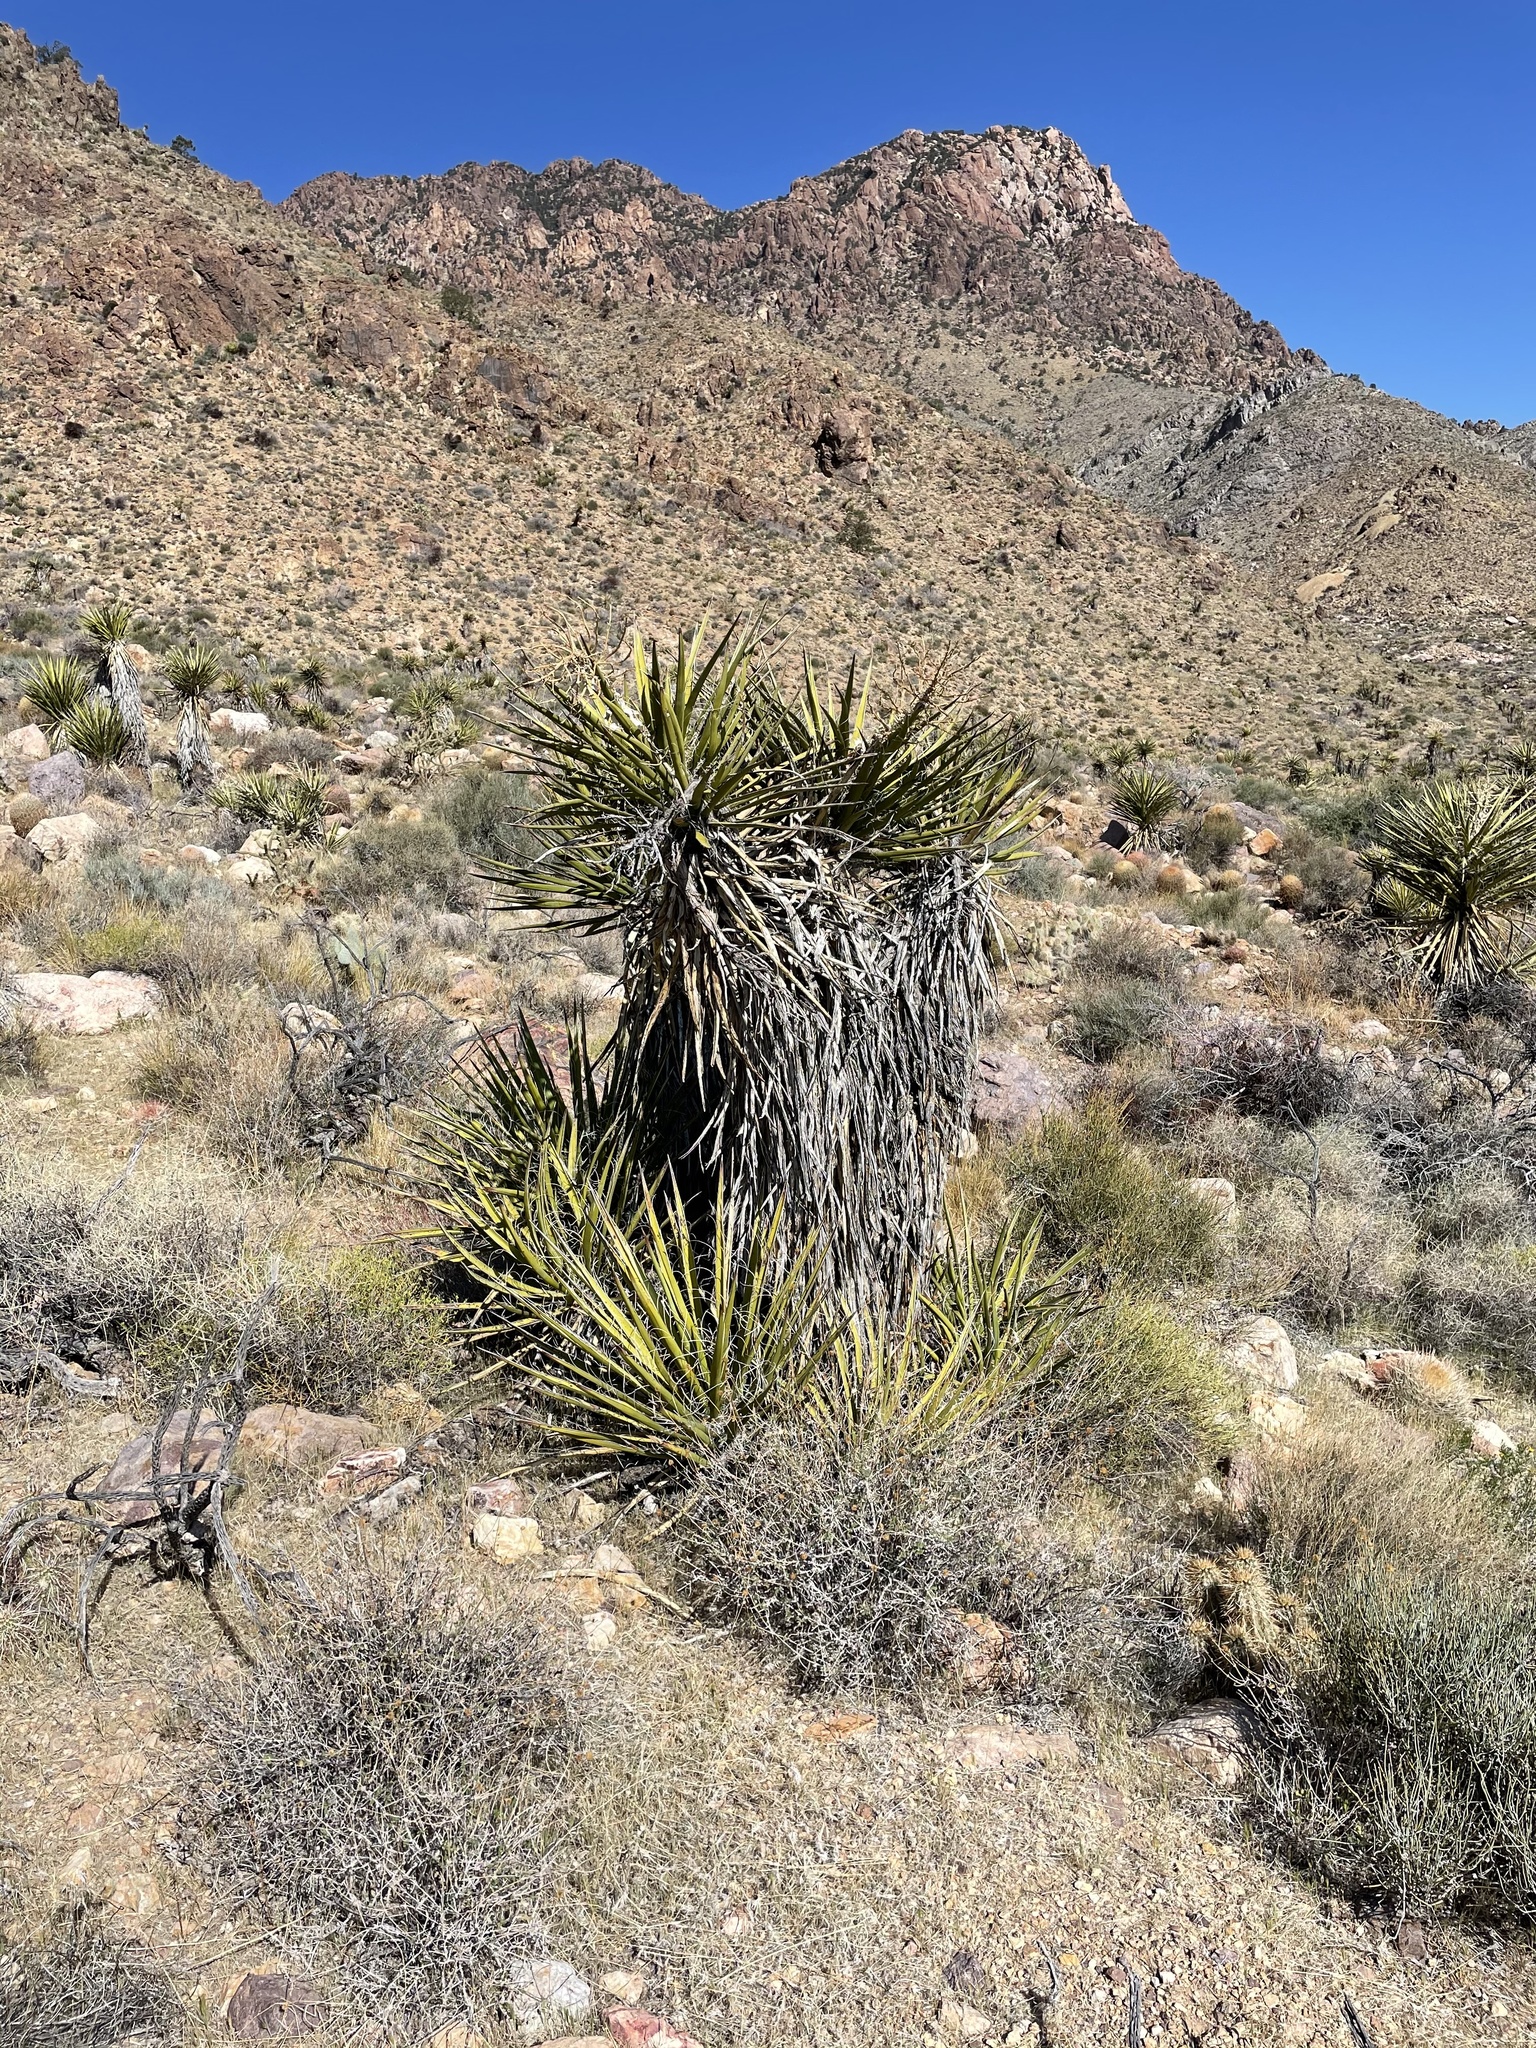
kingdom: Plantae
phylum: Tracheophyta
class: Liliopsida
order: Asparagales
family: Asparagaceae
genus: Yucca
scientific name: Yucca schidigera
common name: Mojave yucca
